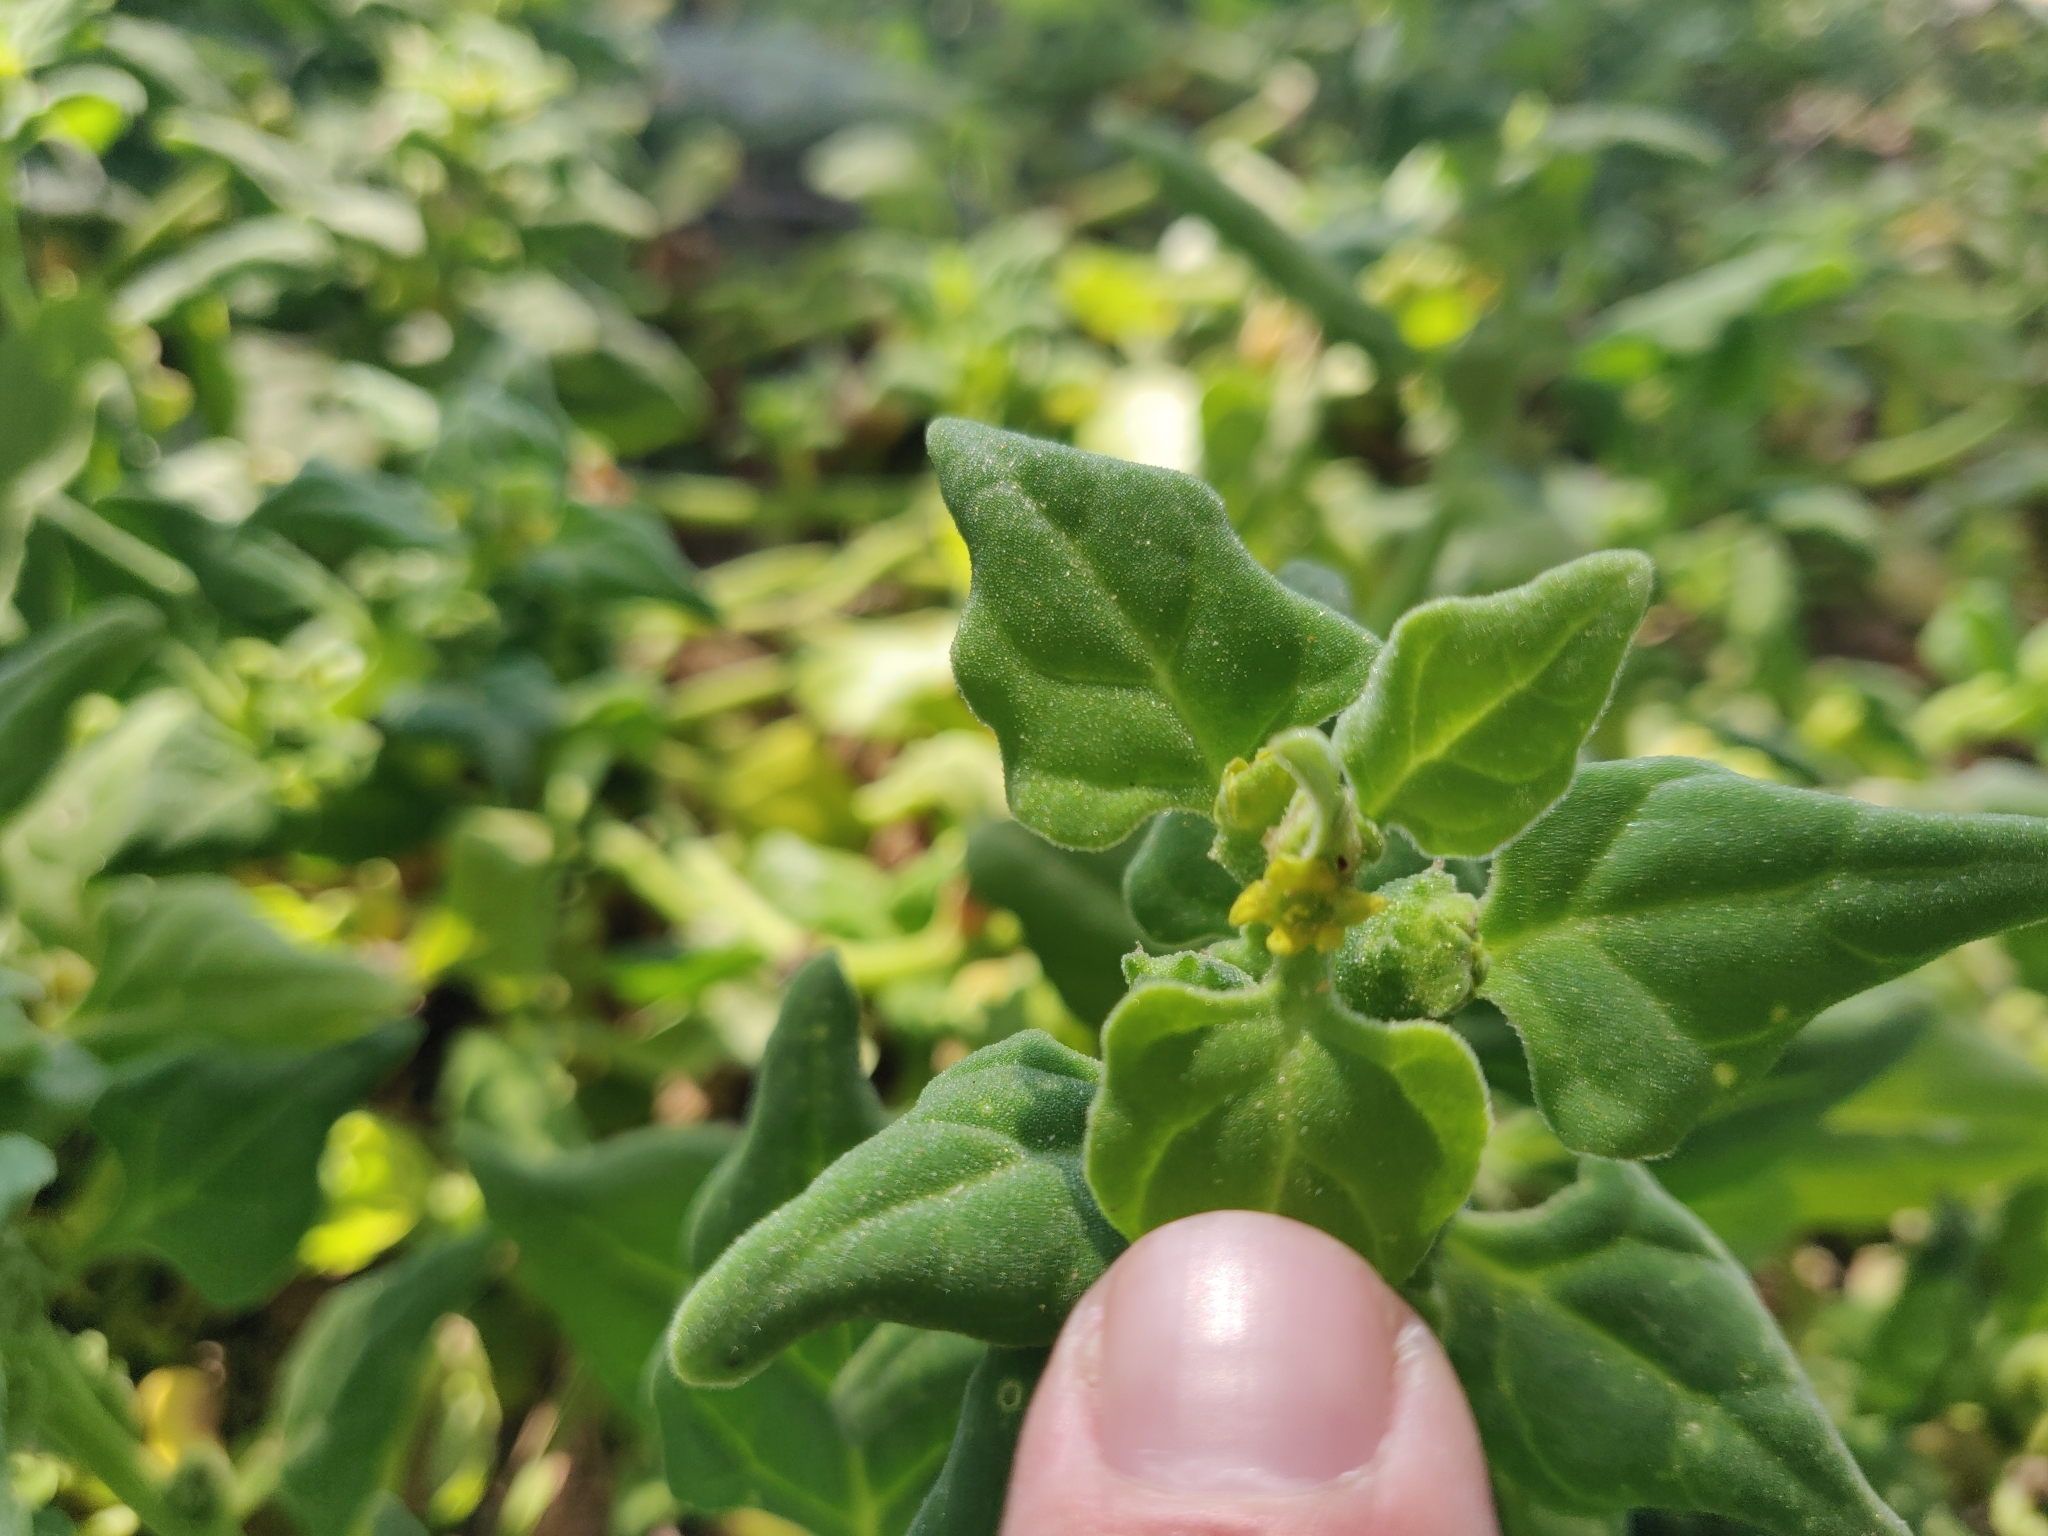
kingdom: Plantae
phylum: Tracheophyta
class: Magnoliopsida
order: Caryophyllales
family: Aizoaceae
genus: Tetragonia
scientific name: Tetragonia tetragonoides
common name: New zealand-spinach
